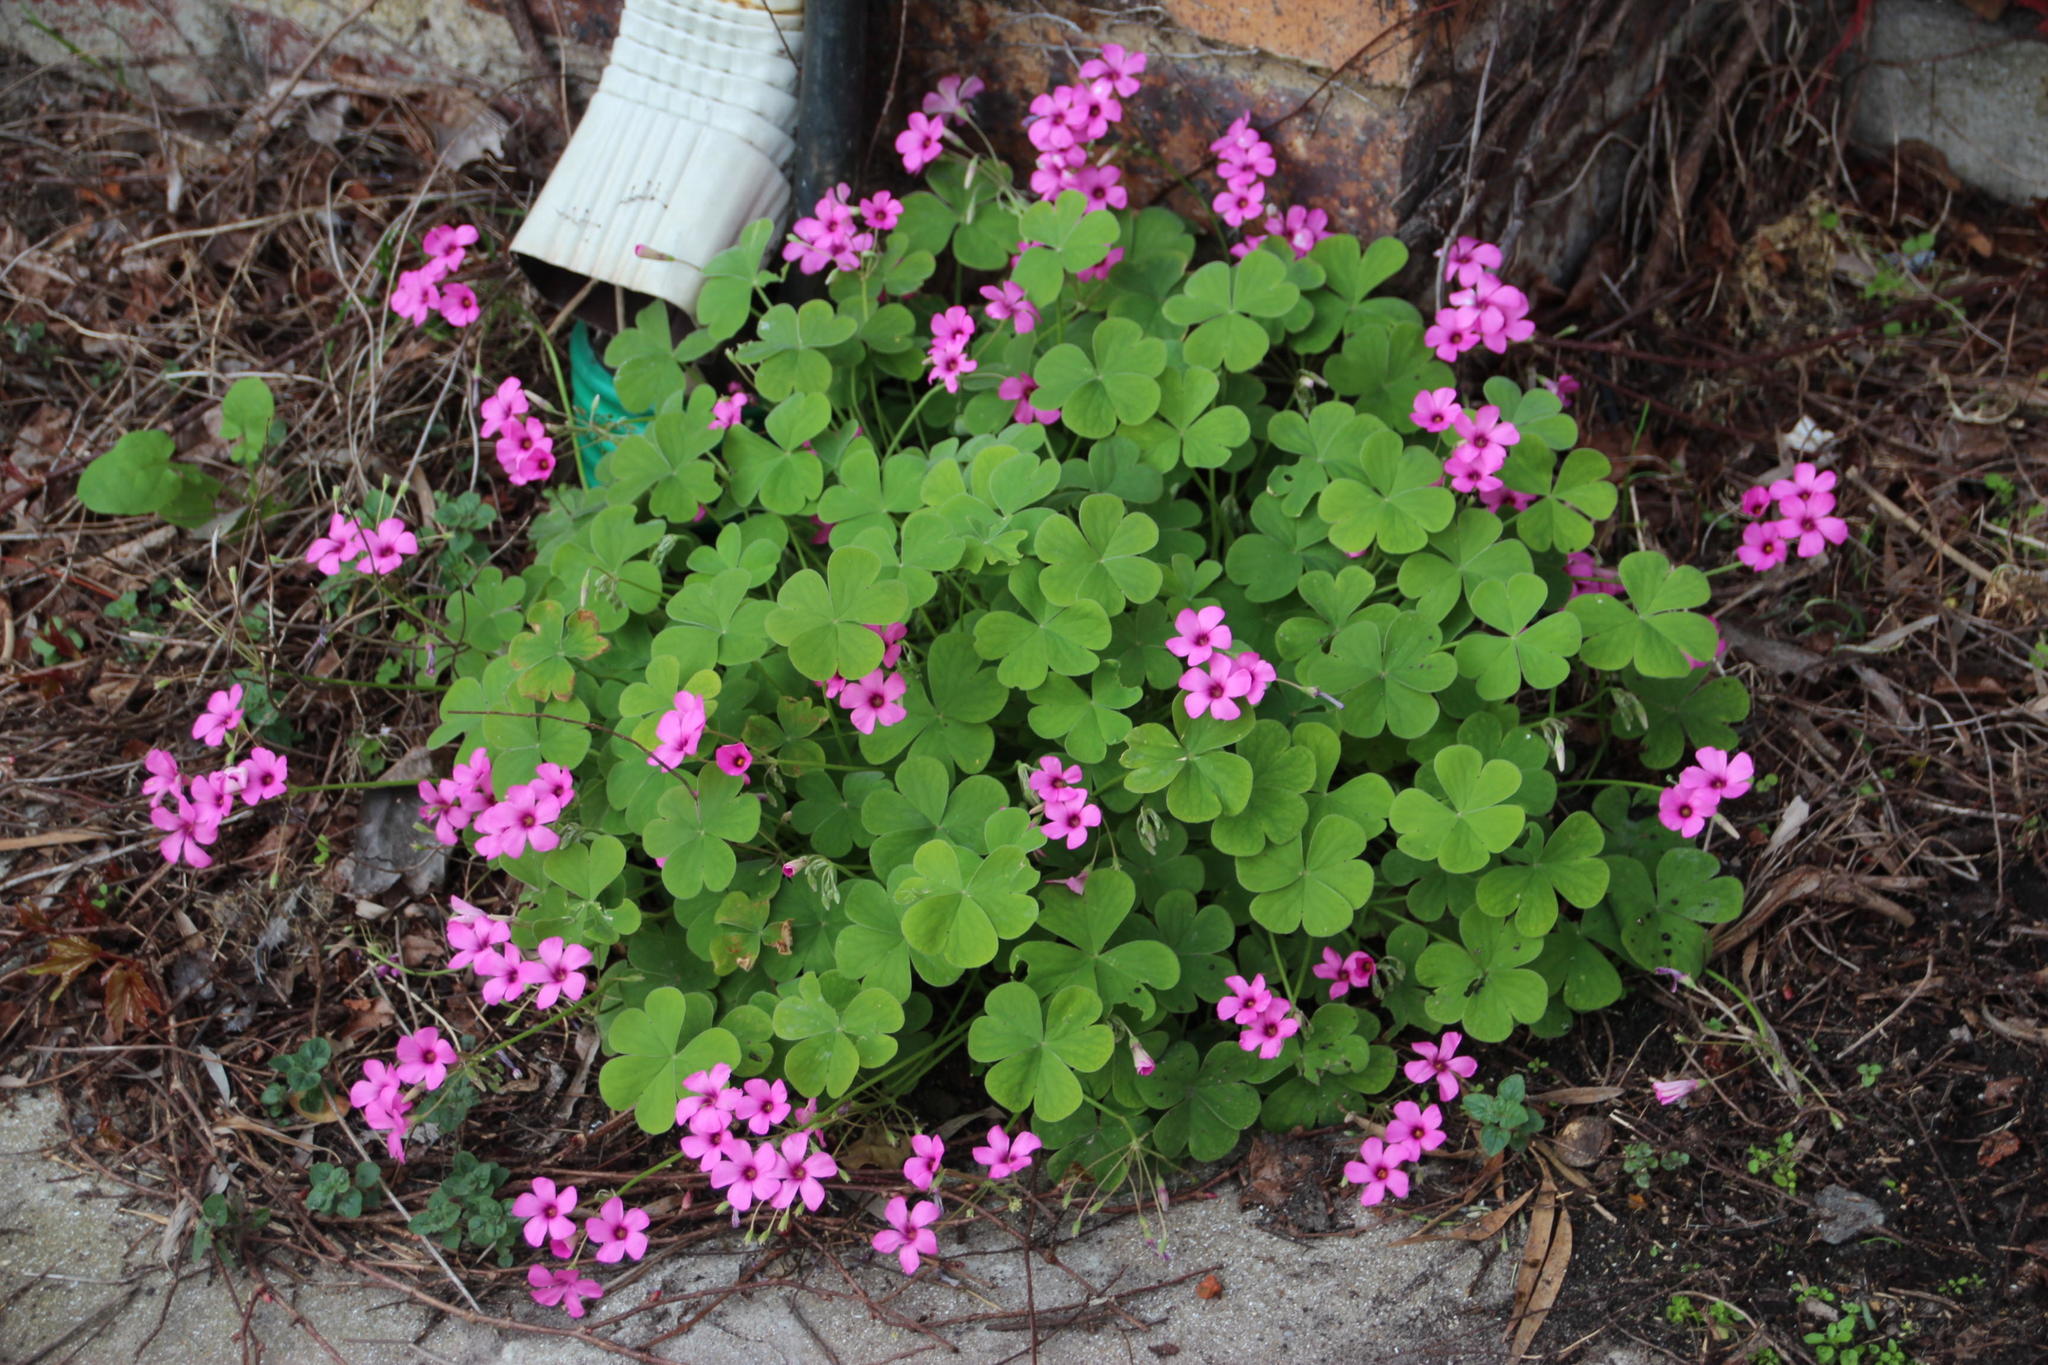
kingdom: Plantae
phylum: Tracheophyta
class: Magnoliopsida
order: Oxalidales
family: Oxalidaceae
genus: Oxalis
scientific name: Oxalis articulata
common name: Pink-sorrel
